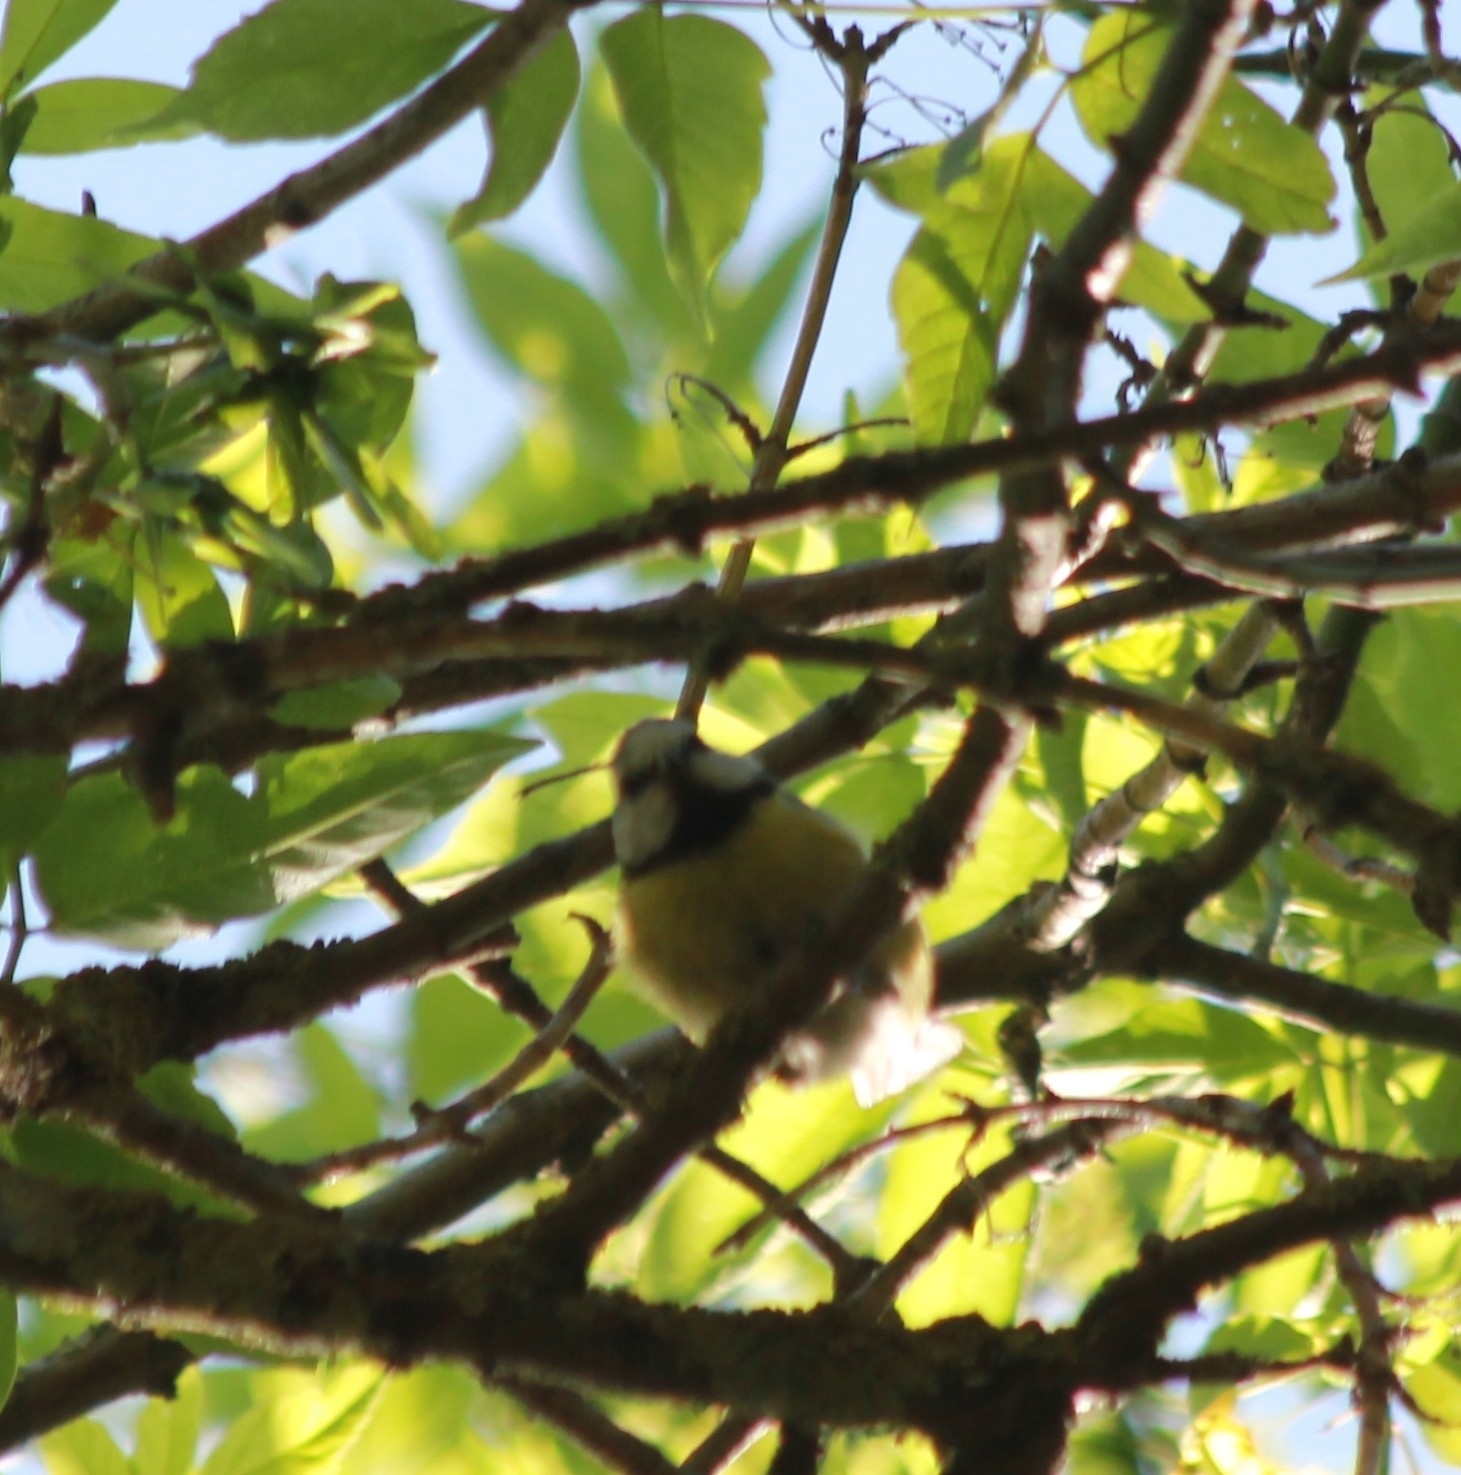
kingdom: Animalia
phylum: Chordata
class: Aves
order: Passeriformes
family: Paridae
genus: Cyanistes
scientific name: Cyanistes caeruleus
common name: Eurasian blue tit
